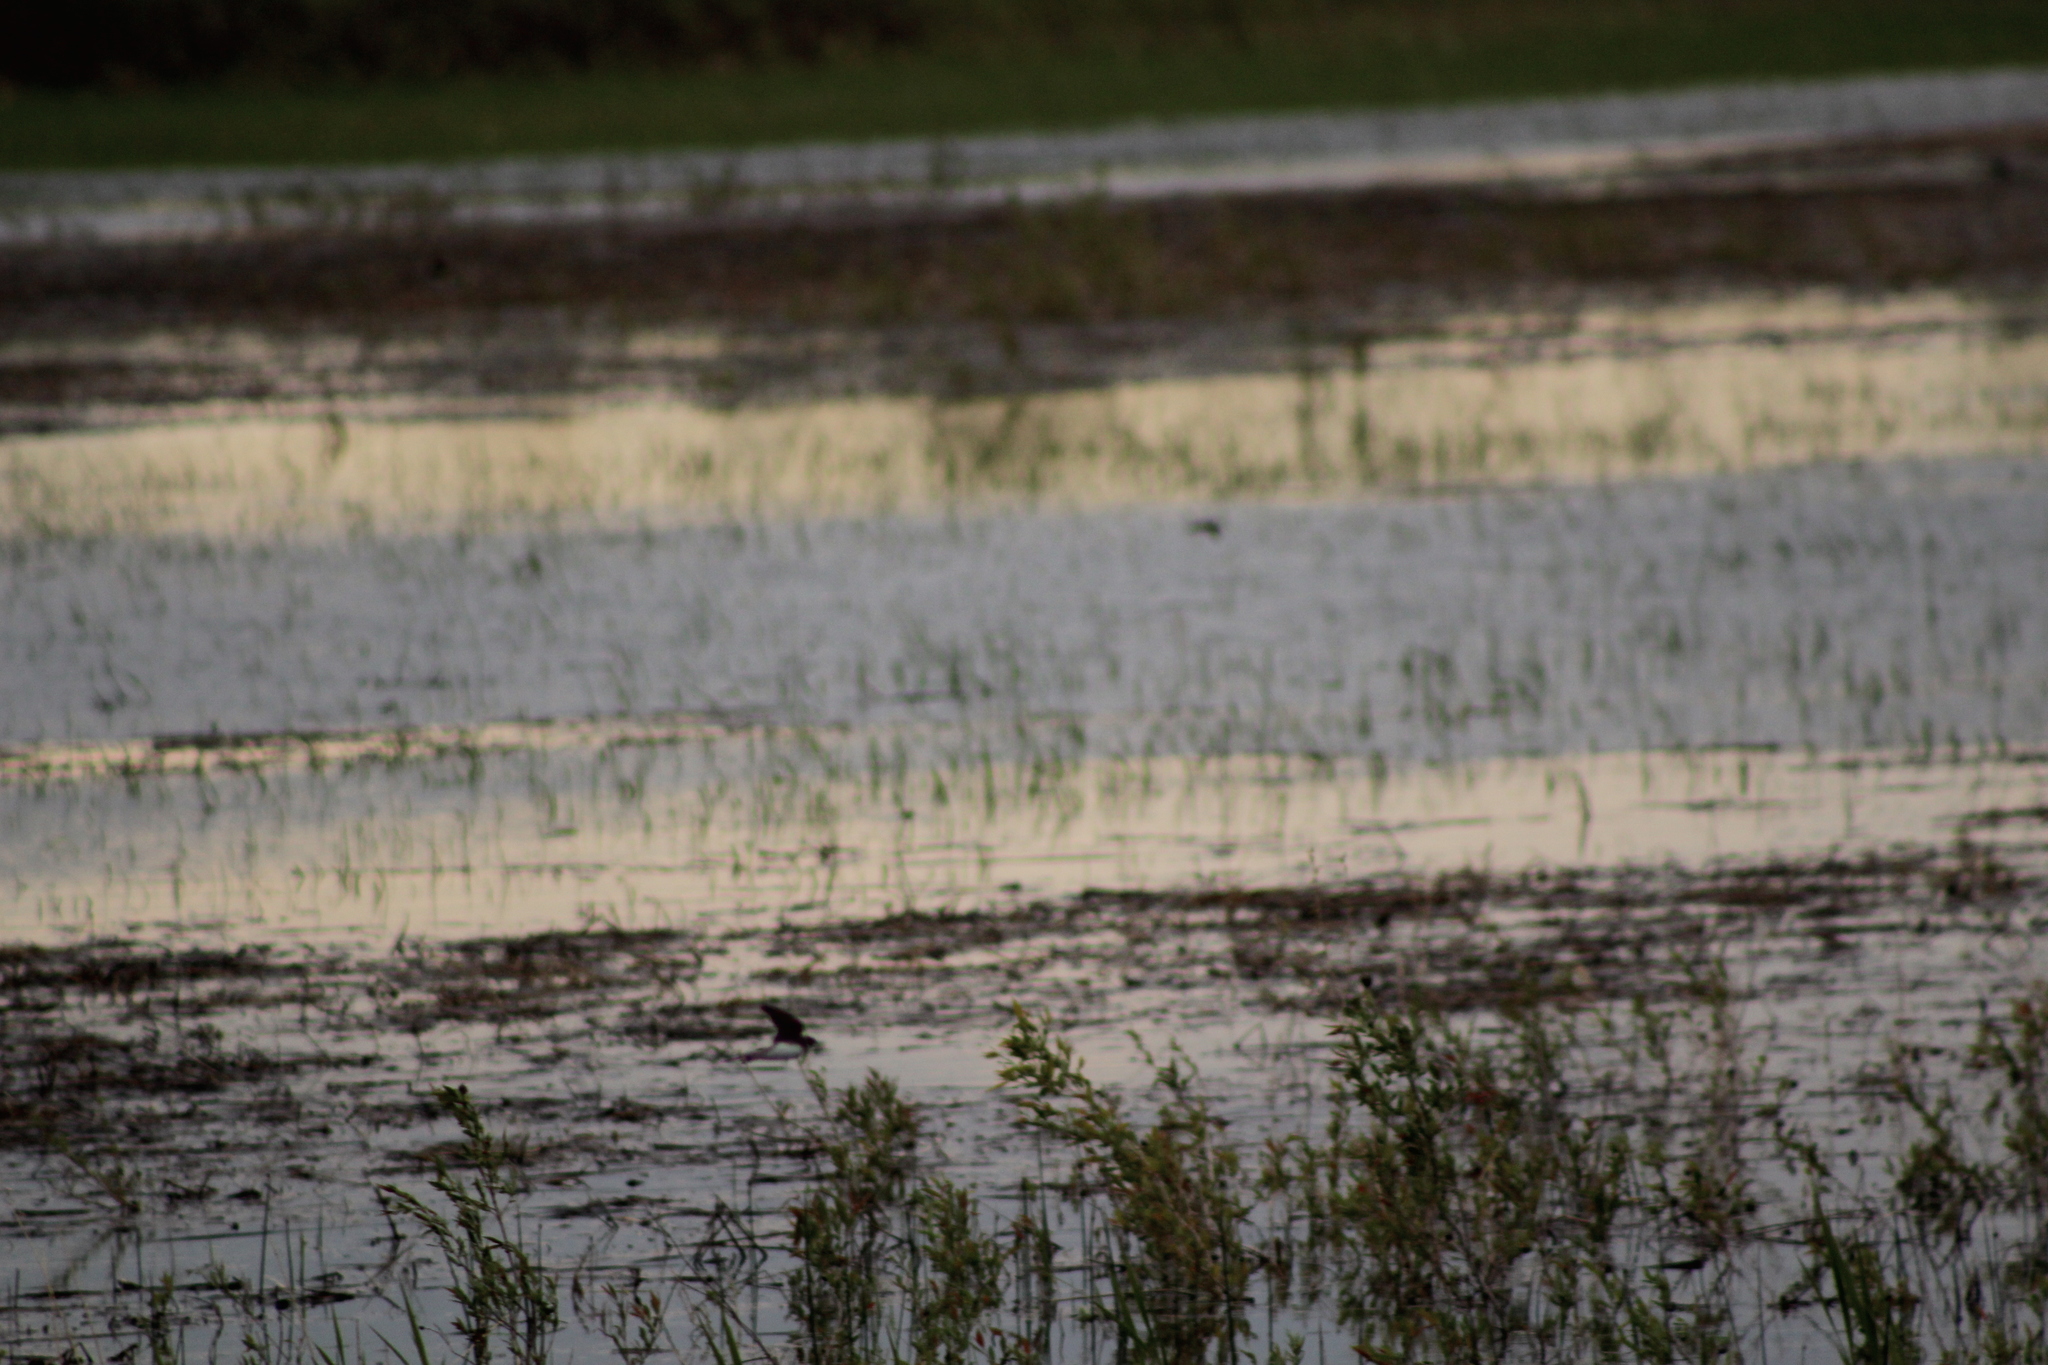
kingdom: Animalia
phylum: Chordata
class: Aves
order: Passeriformes
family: Hirundinidae
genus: Riparia
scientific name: Riparia riparia
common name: Sand martin
